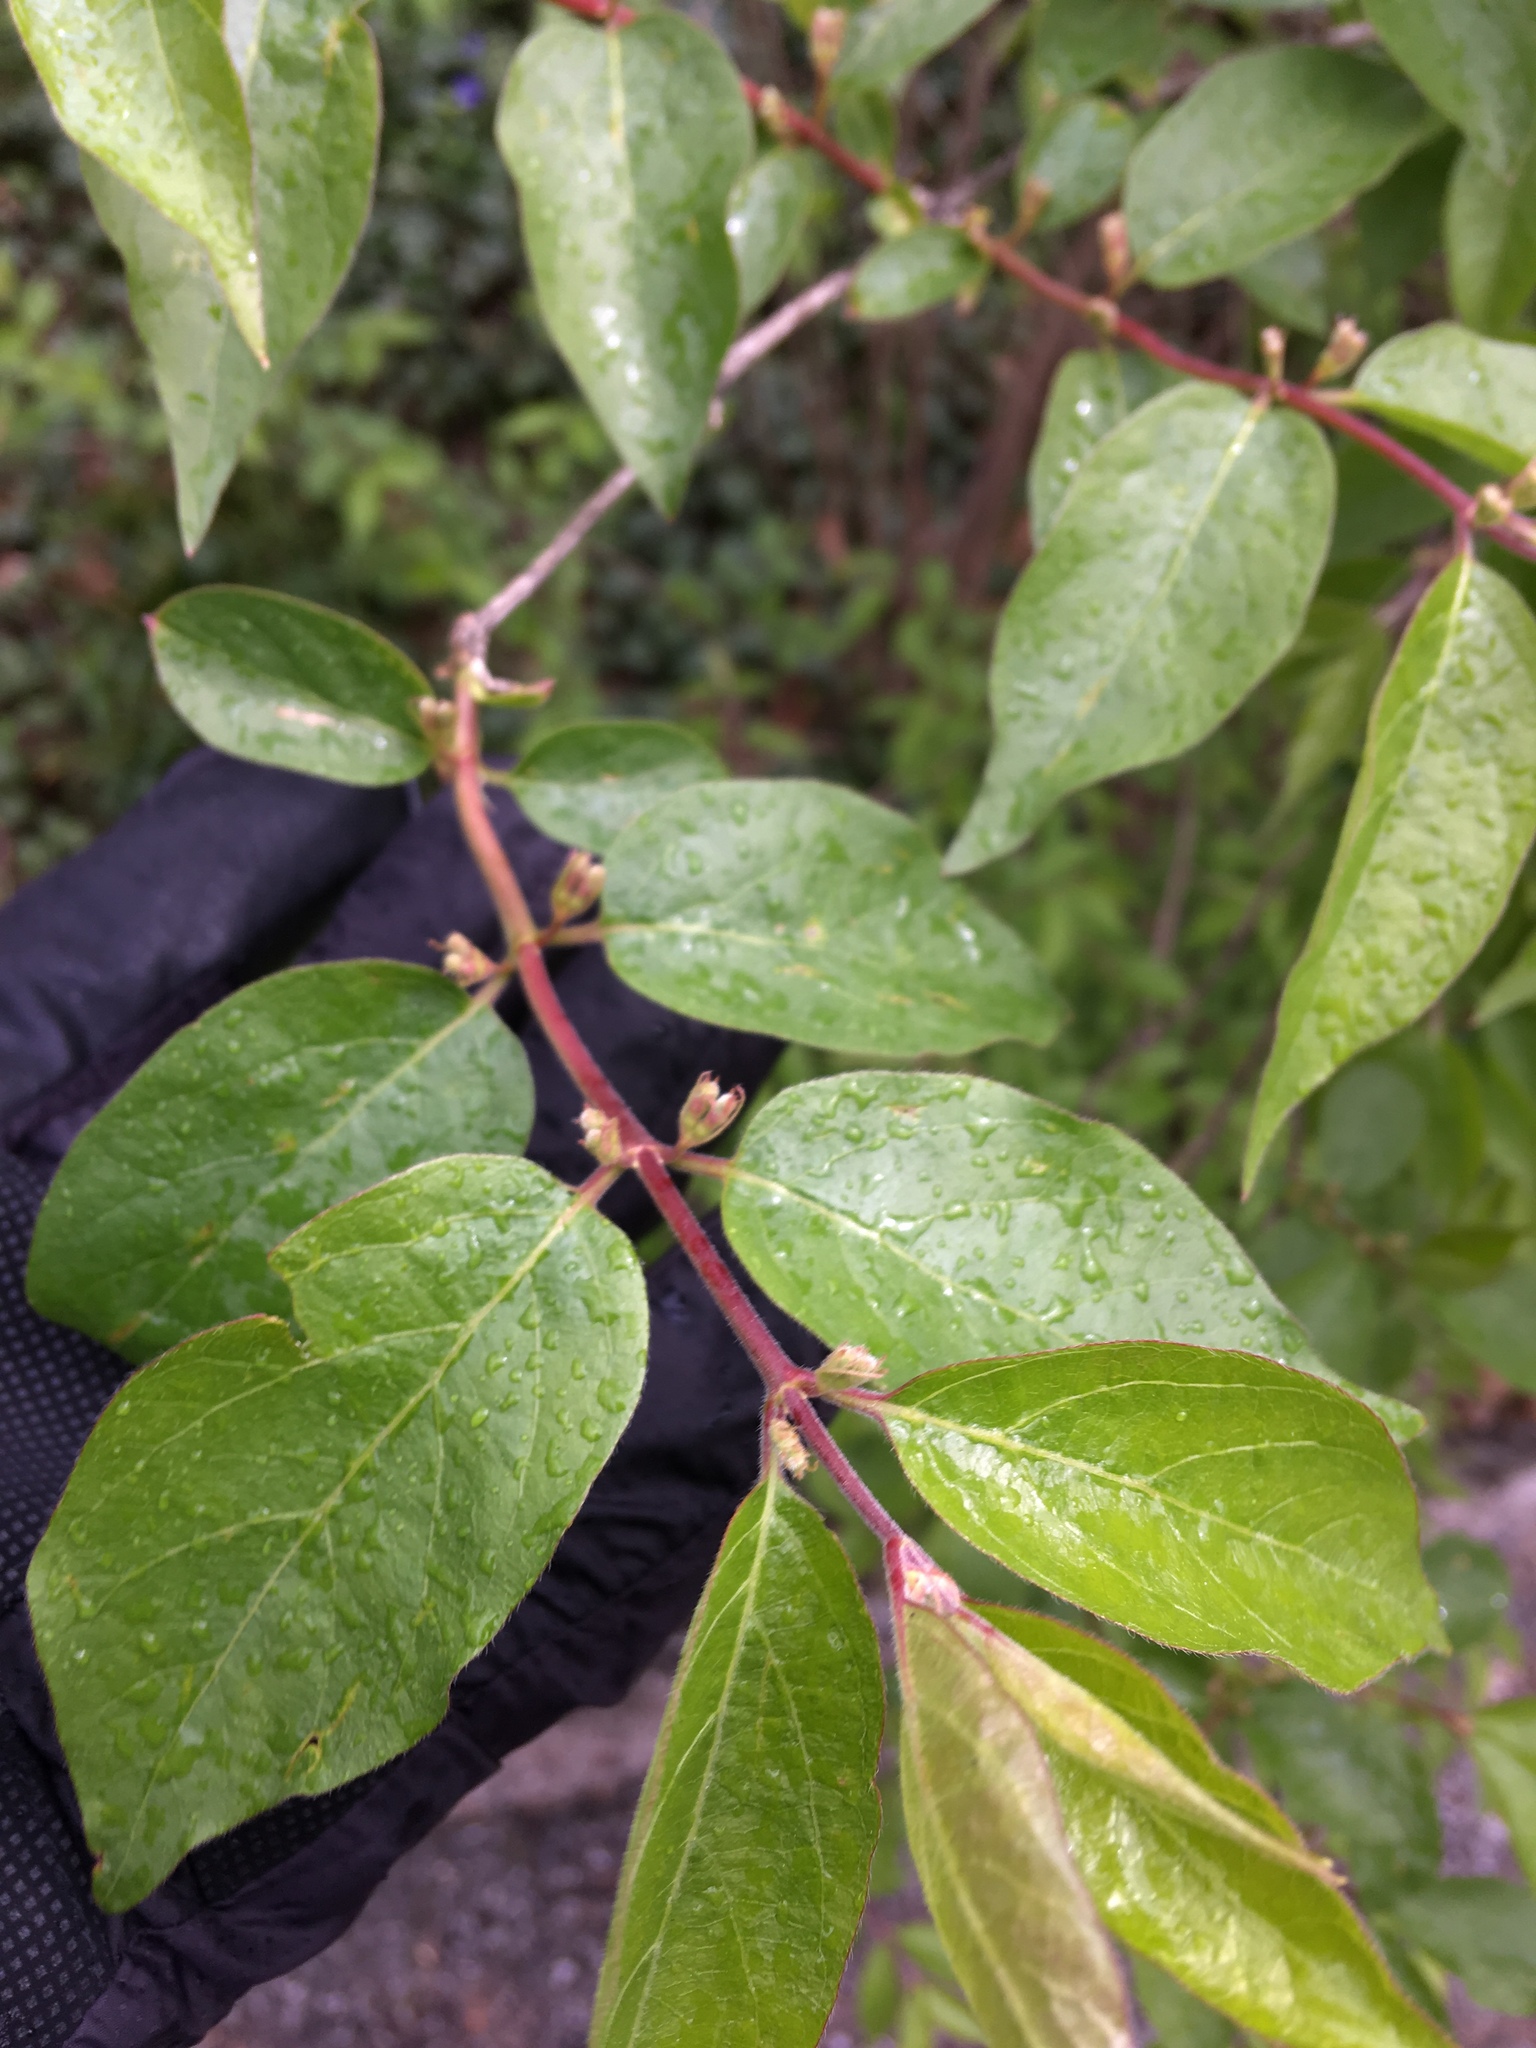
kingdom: Plantae
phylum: Tracheophyta
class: Magnoliopsida
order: Dipsacales
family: Caprifoliaceae
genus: Lonicera
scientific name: Lonicera maackii
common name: Amur honeysuckle
